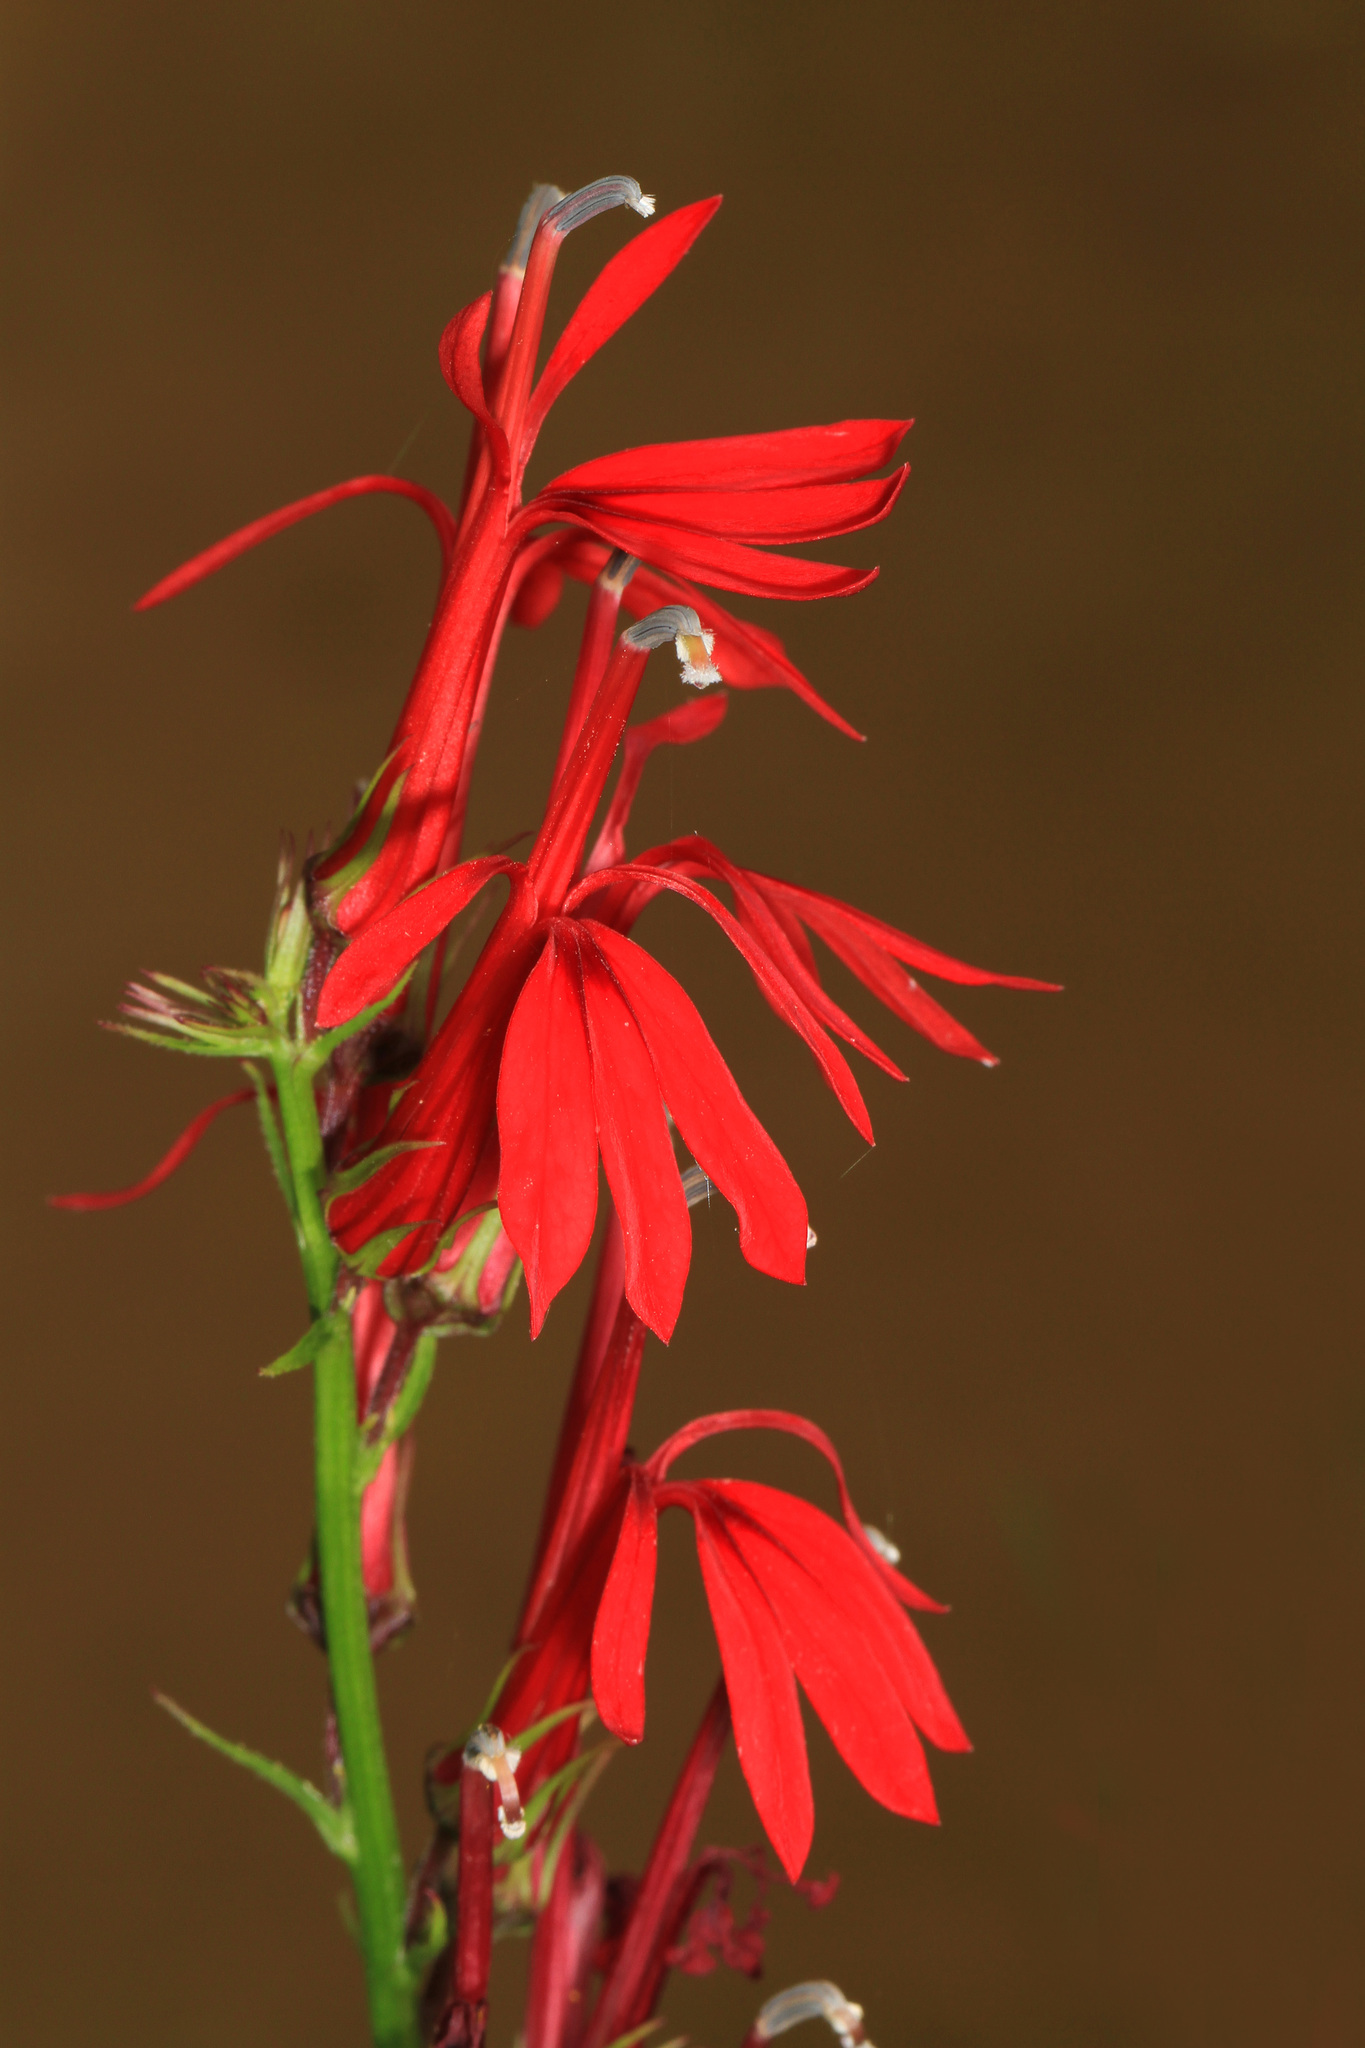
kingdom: Plantae
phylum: Tracheophyta
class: Magnoliopsida
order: Asterales
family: Campanulaceae
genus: Lobelia
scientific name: Lobelia cardinalis
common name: Cardinal flower
